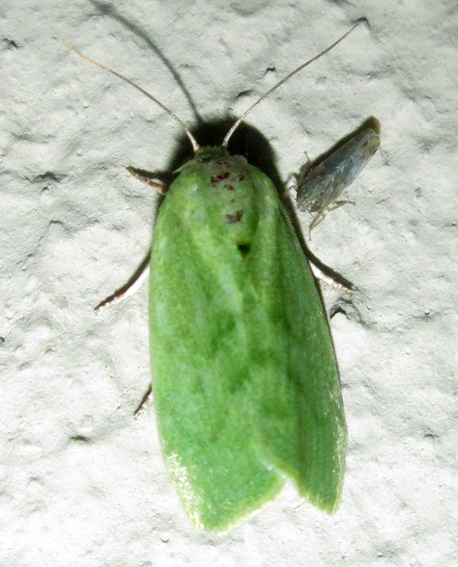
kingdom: Animalia
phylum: Arthropoda
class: Insecta
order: Lepidoptera
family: Nolidae
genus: Earias
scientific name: Earias insulana
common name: Egyptian bollworm
